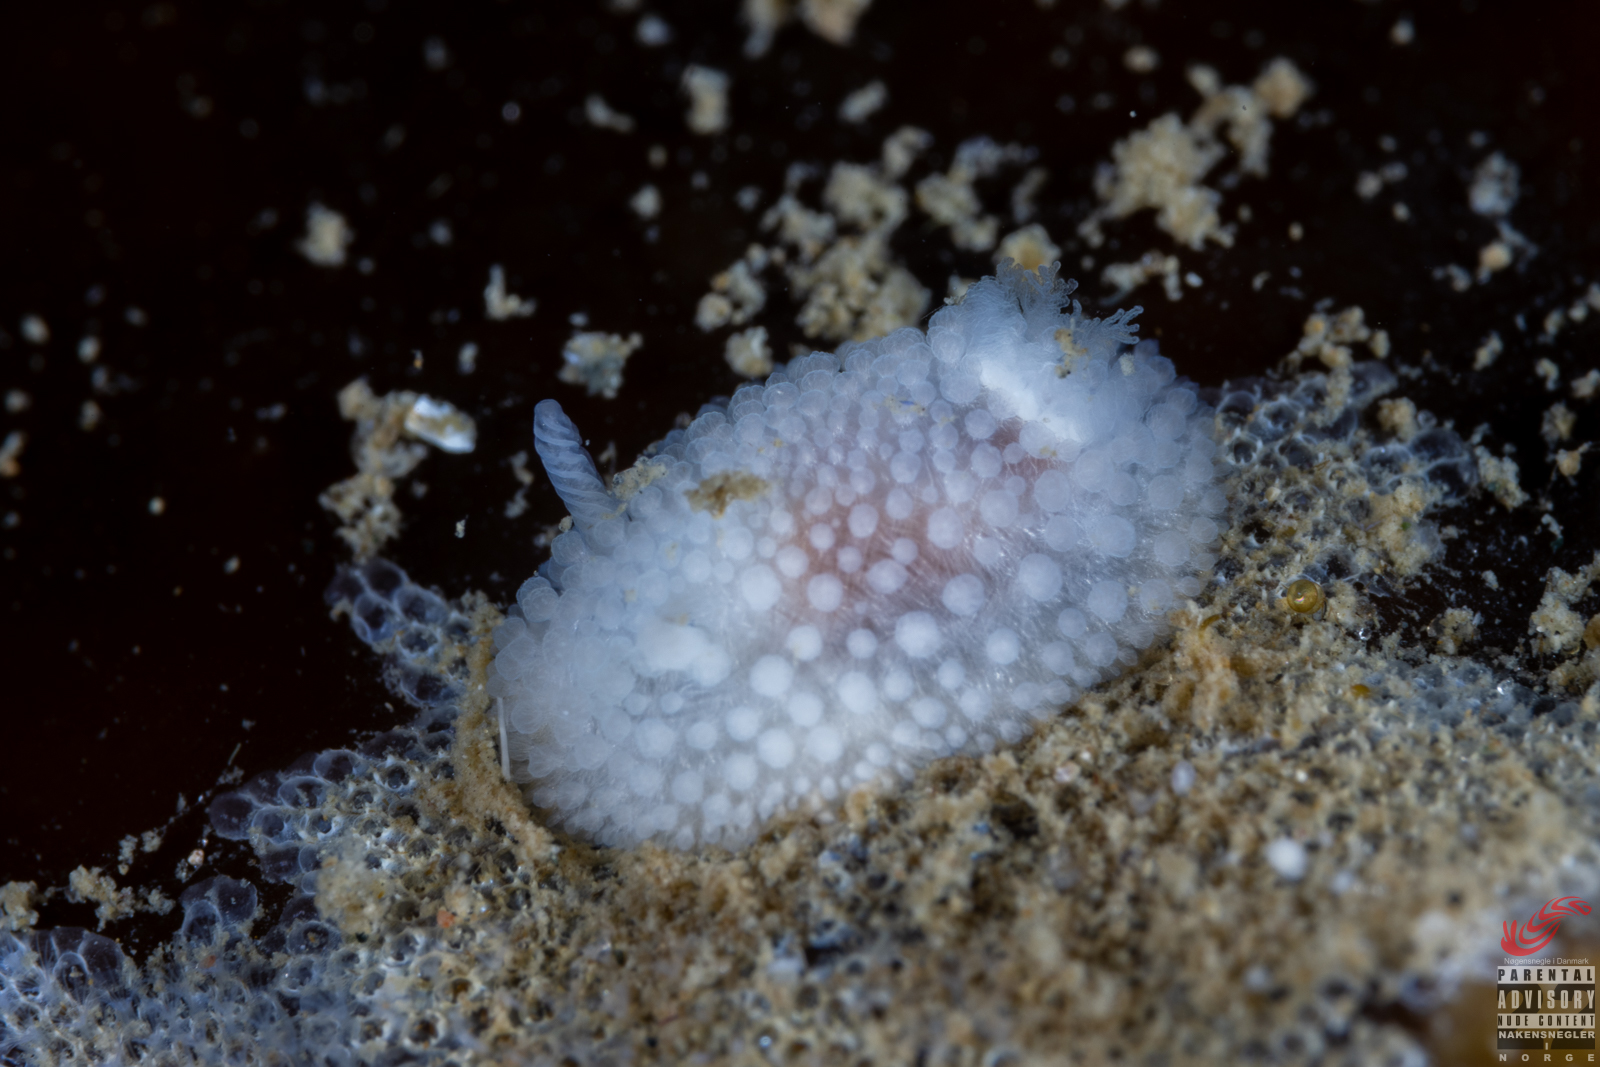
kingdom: Animalia
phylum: Mollusca
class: Gastropoda
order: Nudibranchia
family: Onchidorididae
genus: Onchidoris
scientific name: Onchidoris muricata
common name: Rough doris
